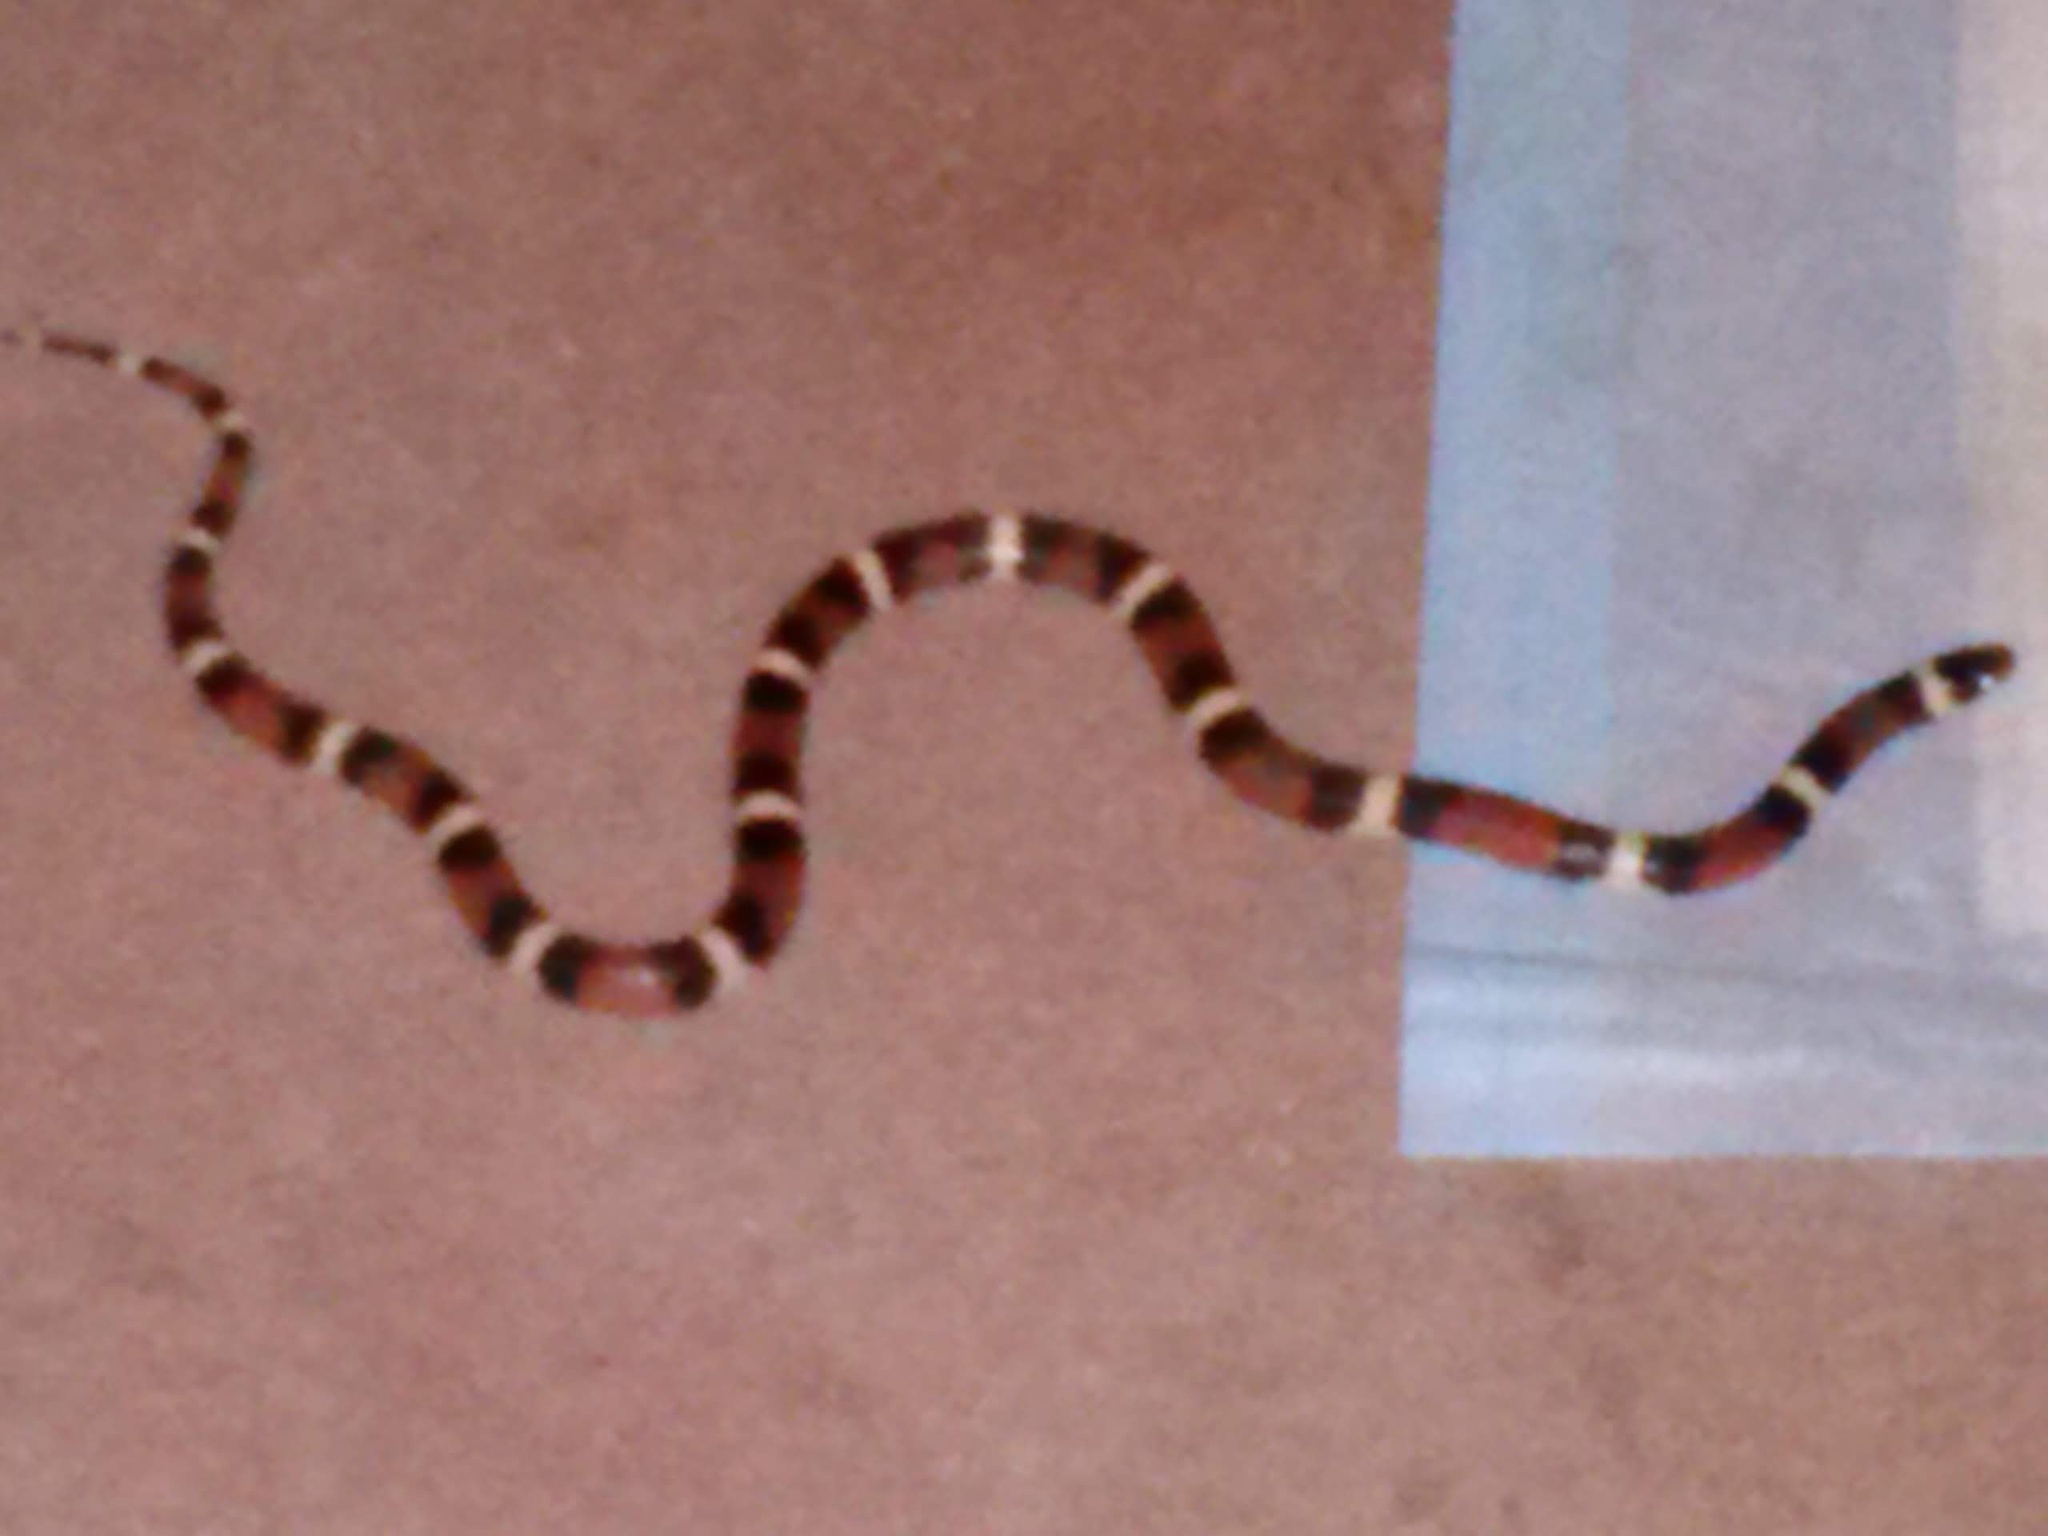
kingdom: Animalia
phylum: Chordata
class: Squamata
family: Colubridae
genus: Lampropeltis
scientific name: Lampropeltis elapsoides
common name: Scarlet kingsnake
